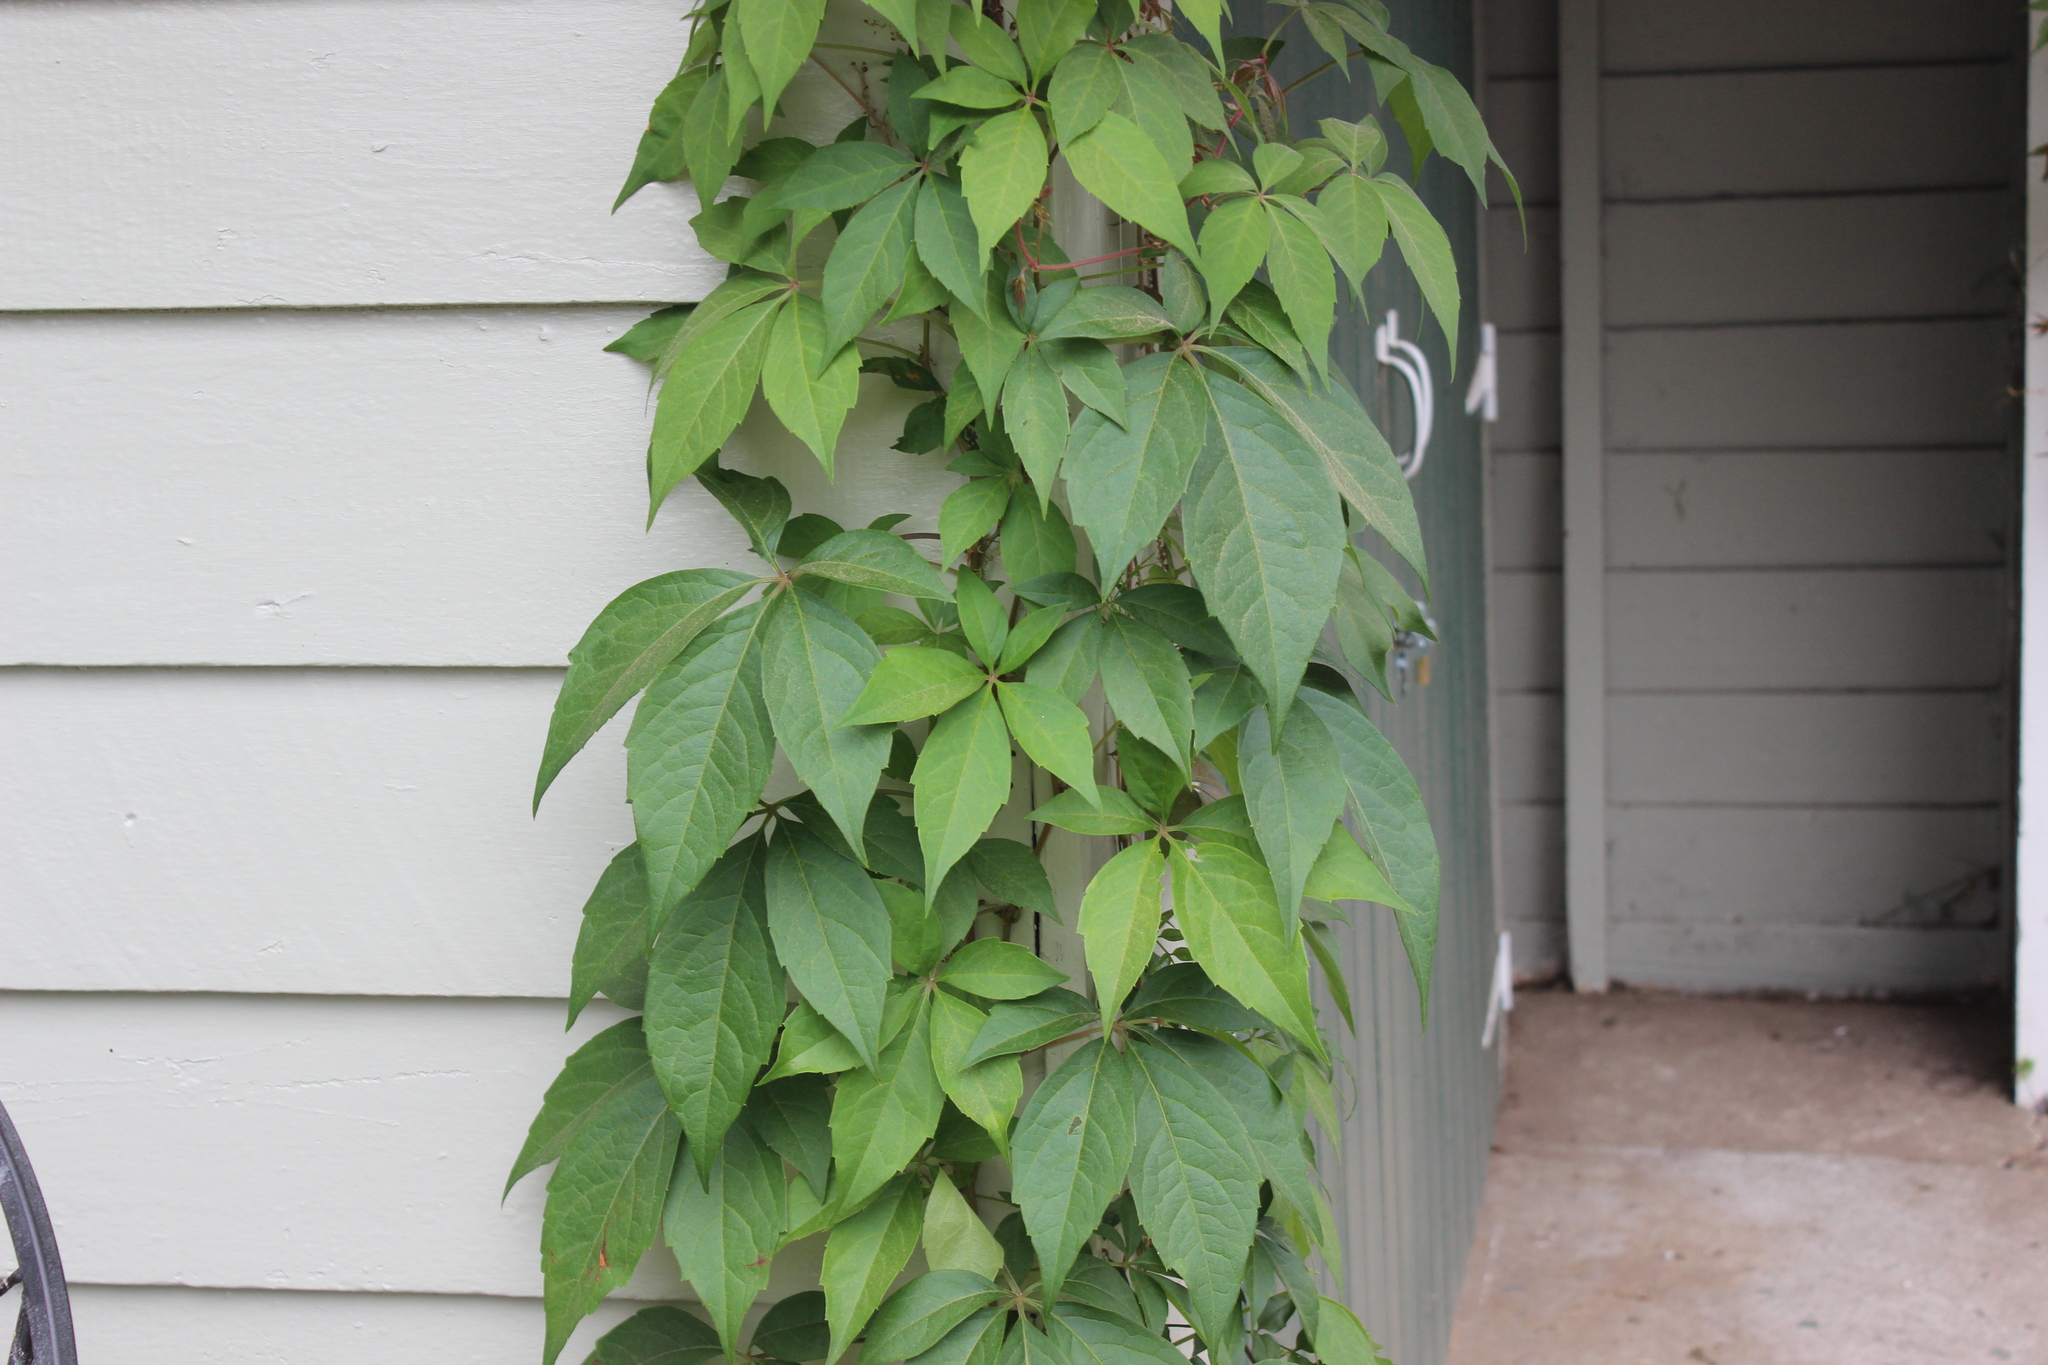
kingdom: Plantae
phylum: Tracheophyta
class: Magnoliopsida
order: Vitales
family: Vitaceae
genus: Parthenocissus
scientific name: Parthenocissus quinquefolia
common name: Virginia-creeper
